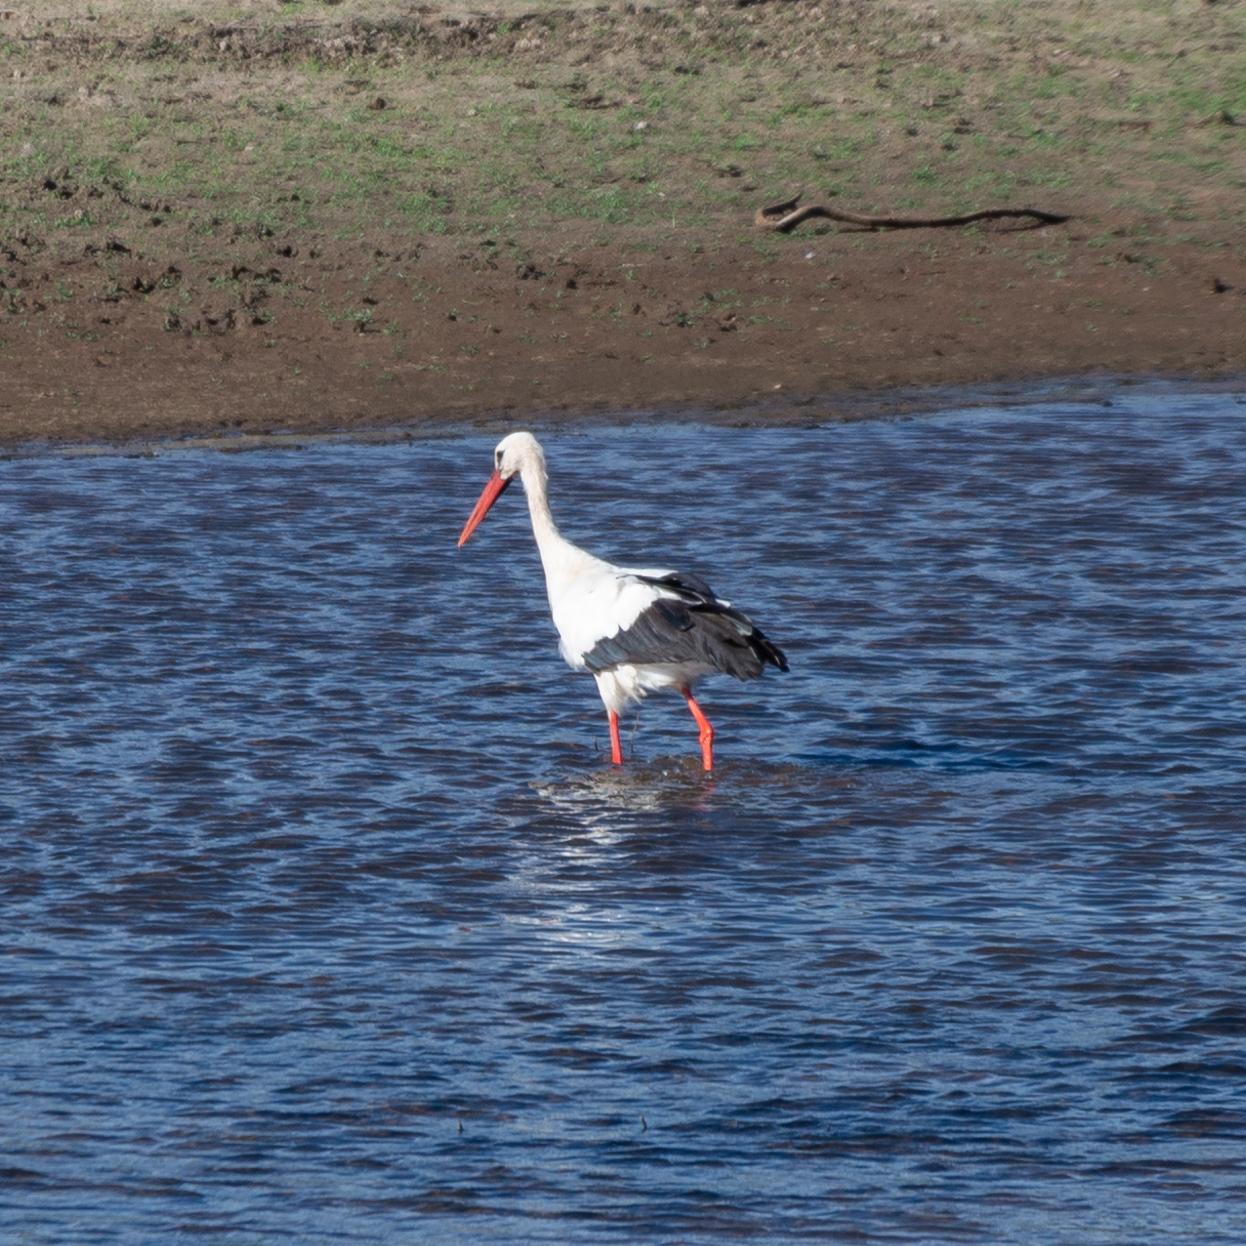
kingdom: Animalia
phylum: Chordata
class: Aves
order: Ciconiiformes
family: Ciconiidae
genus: Ciconia
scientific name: Ciconia ciconia
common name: White stork
